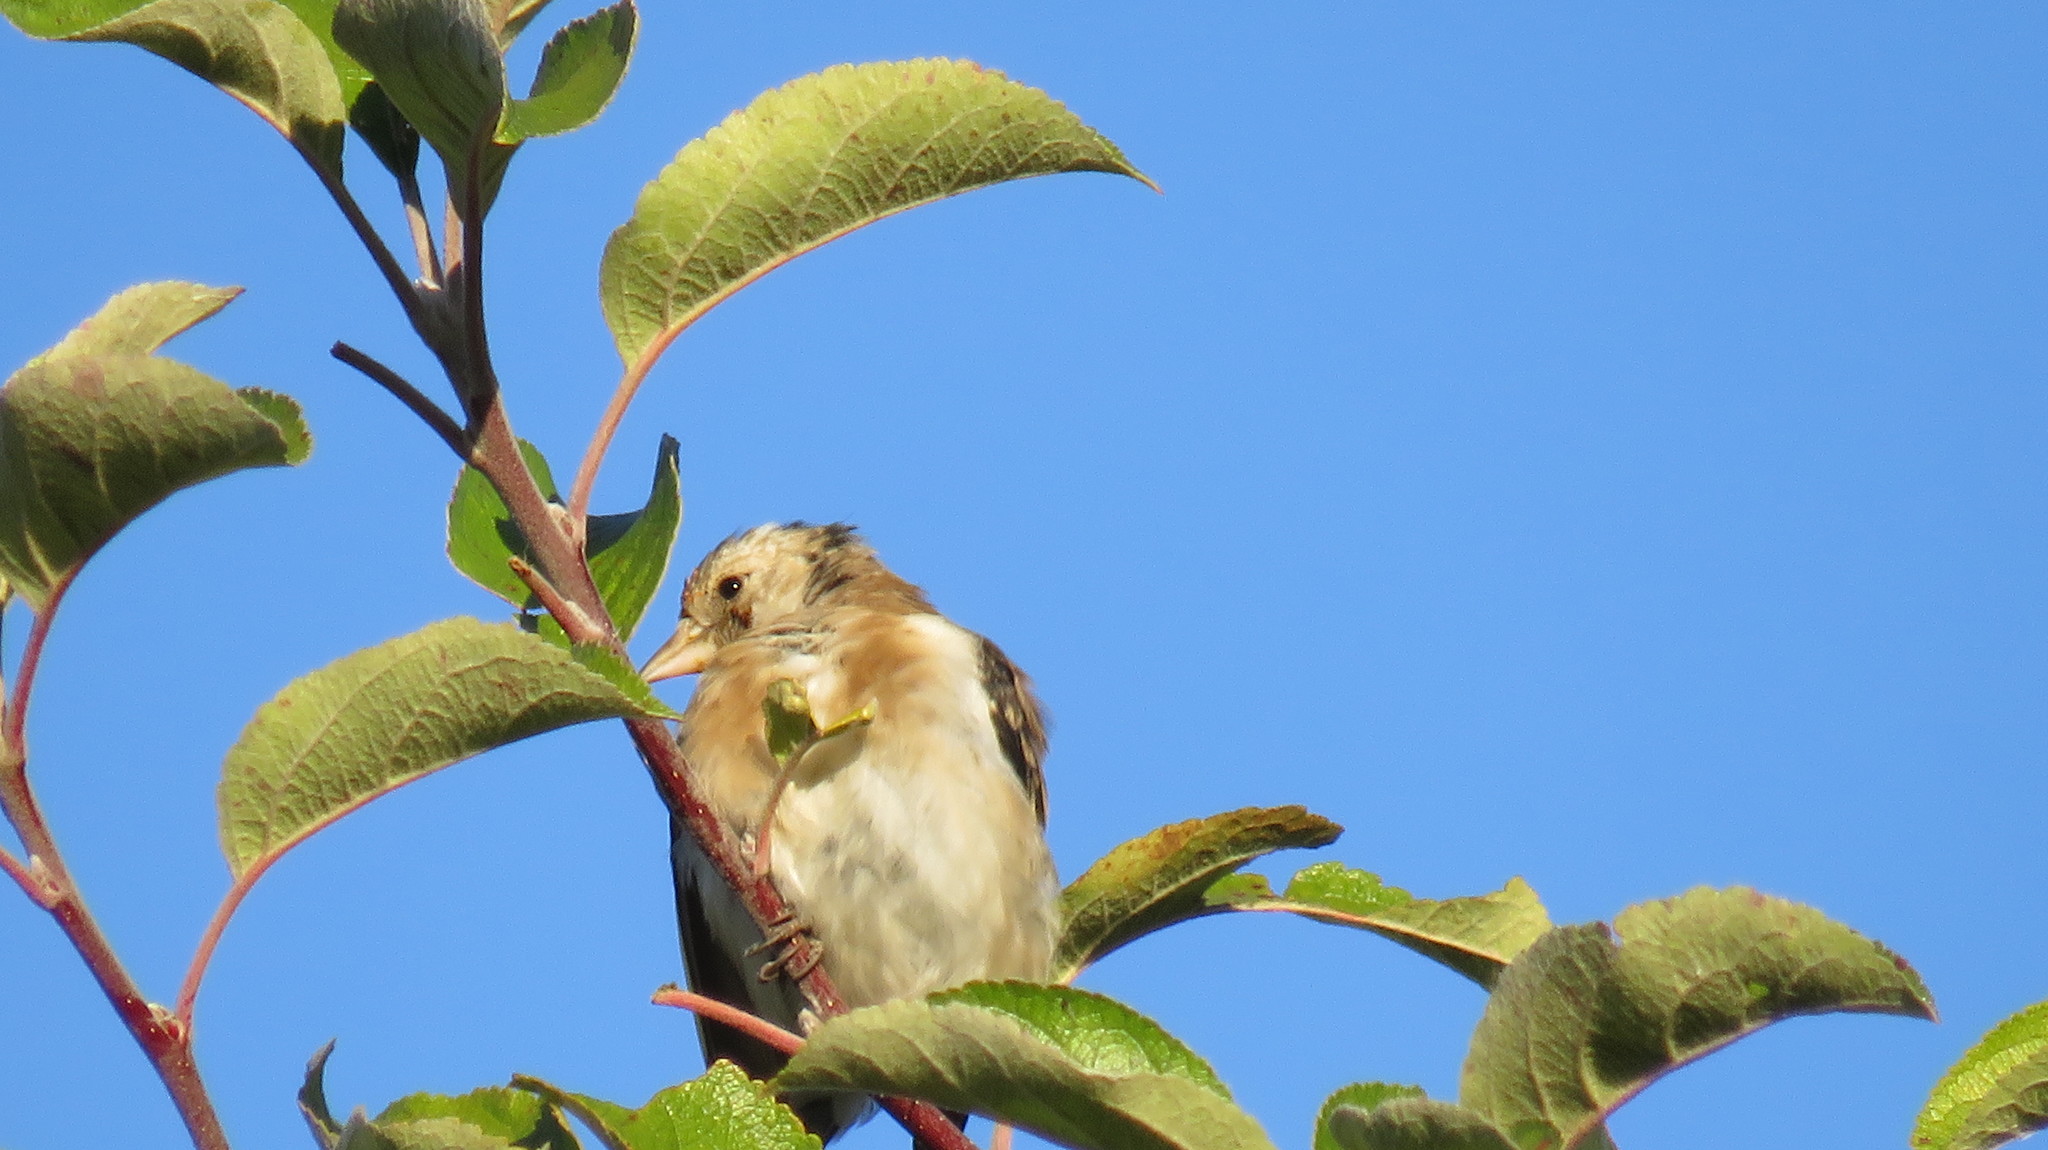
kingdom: Animalia
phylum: Chordata
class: Aves
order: Passeriformes
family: Fringillidae
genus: Carduelis
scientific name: Carduelis carduelis
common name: European goldfinch
